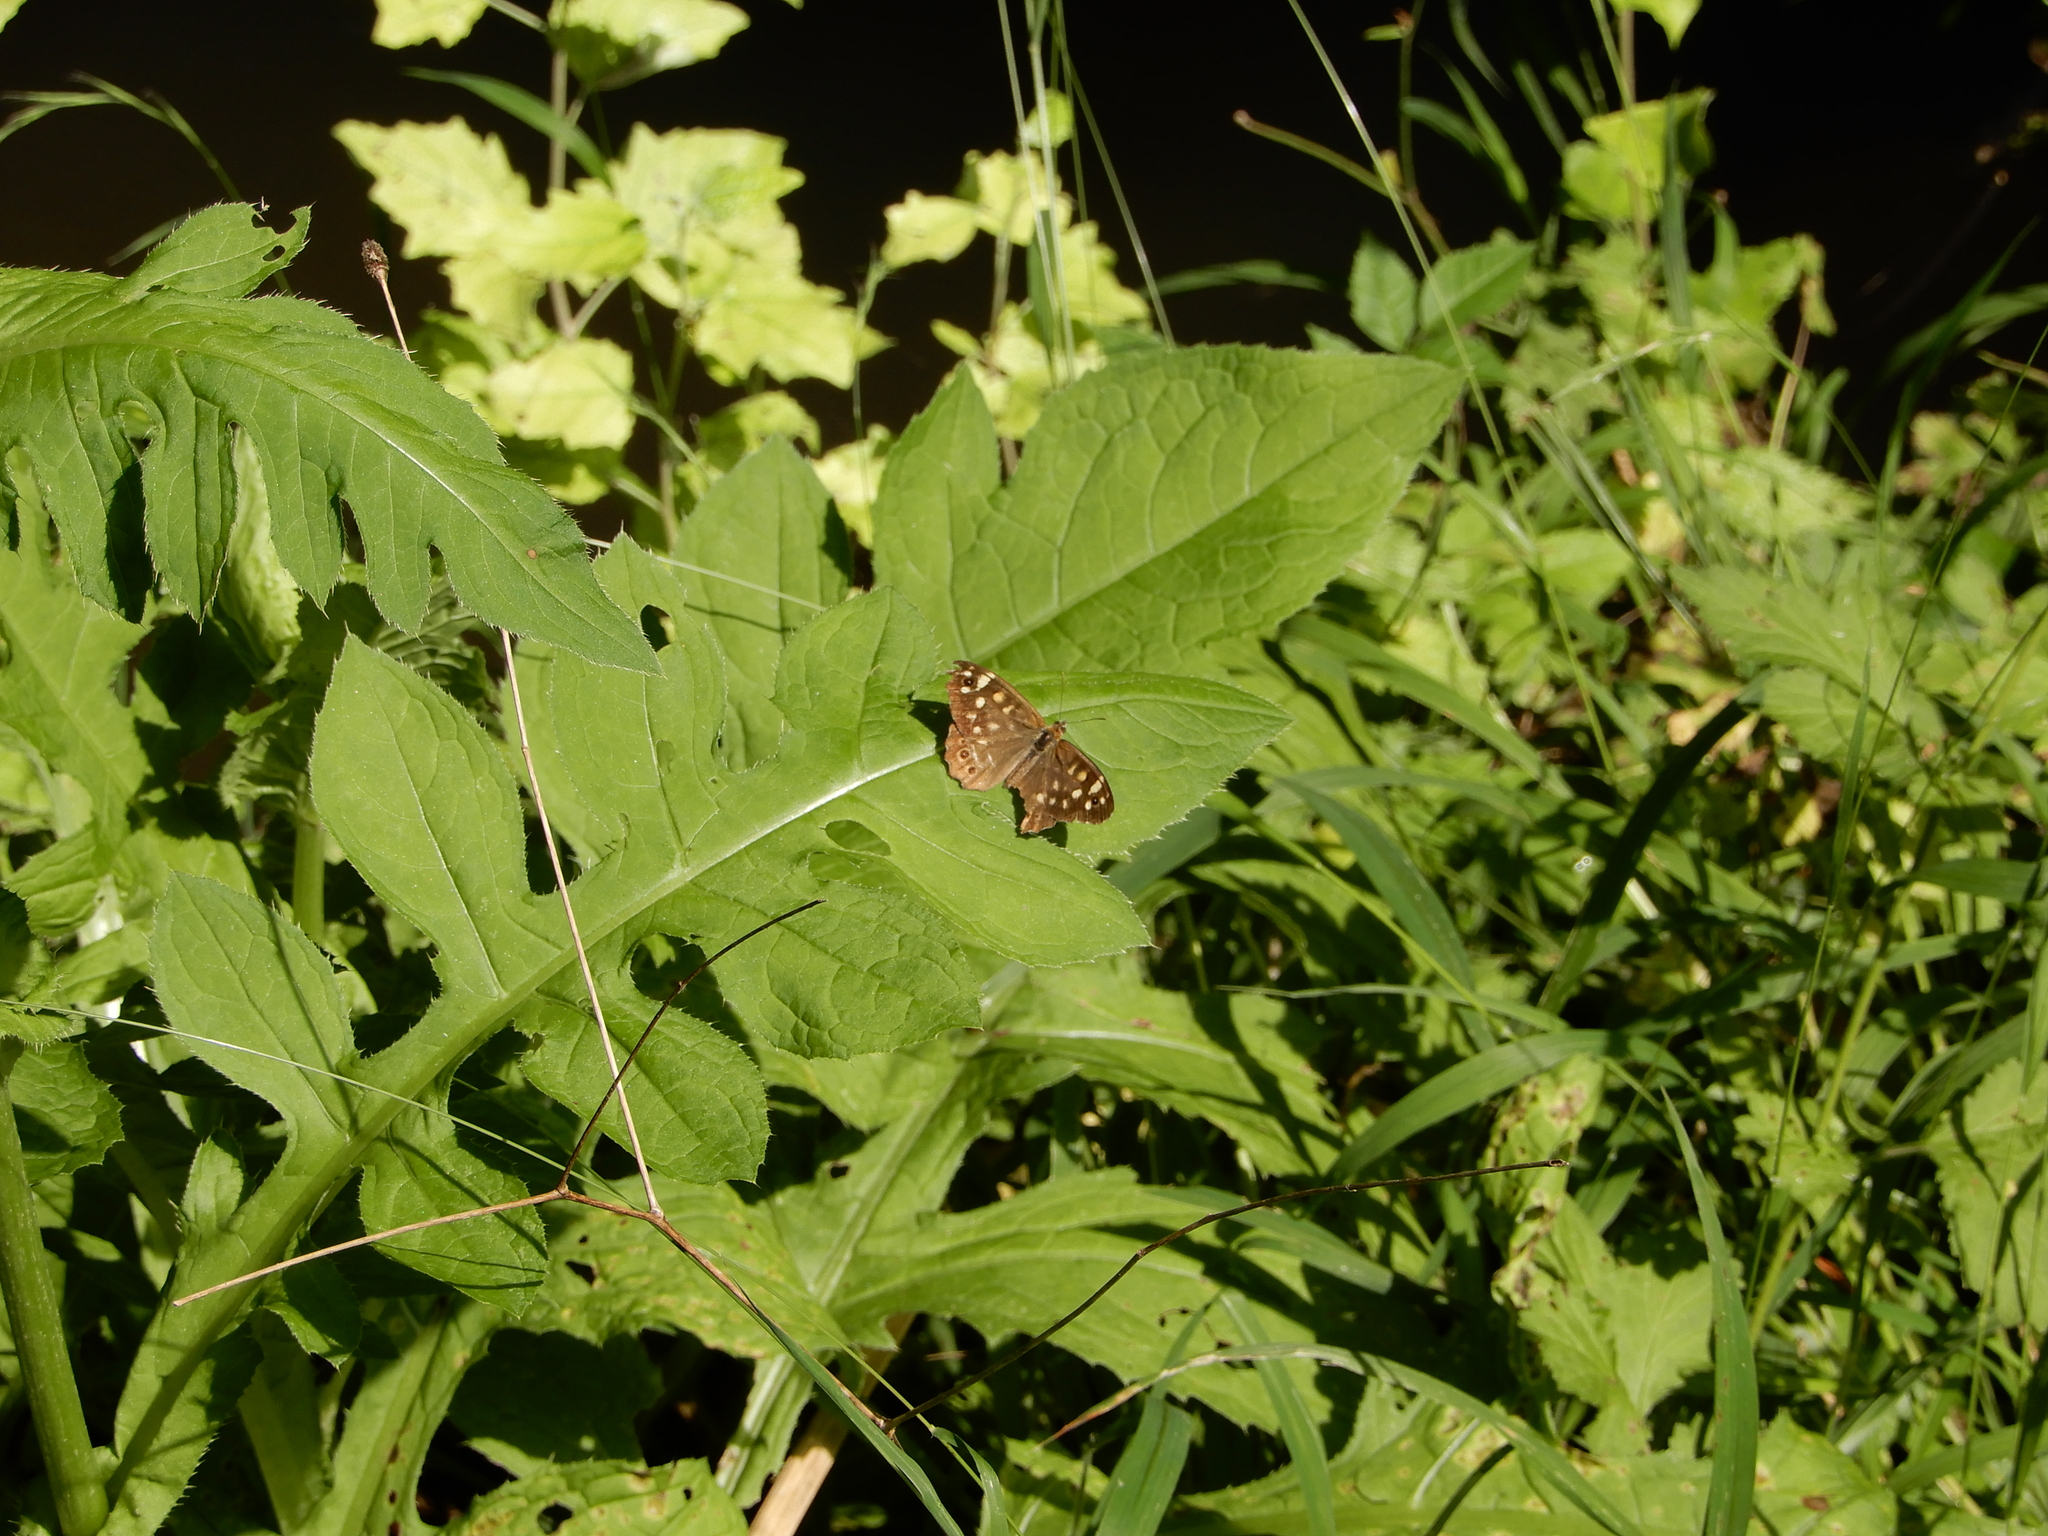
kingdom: Animalia
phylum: Arthropoda
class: Insecta
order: Lepidoptera
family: Nymphalidae
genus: Pararge
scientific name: Pararge aegeria
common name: Speckled wood
